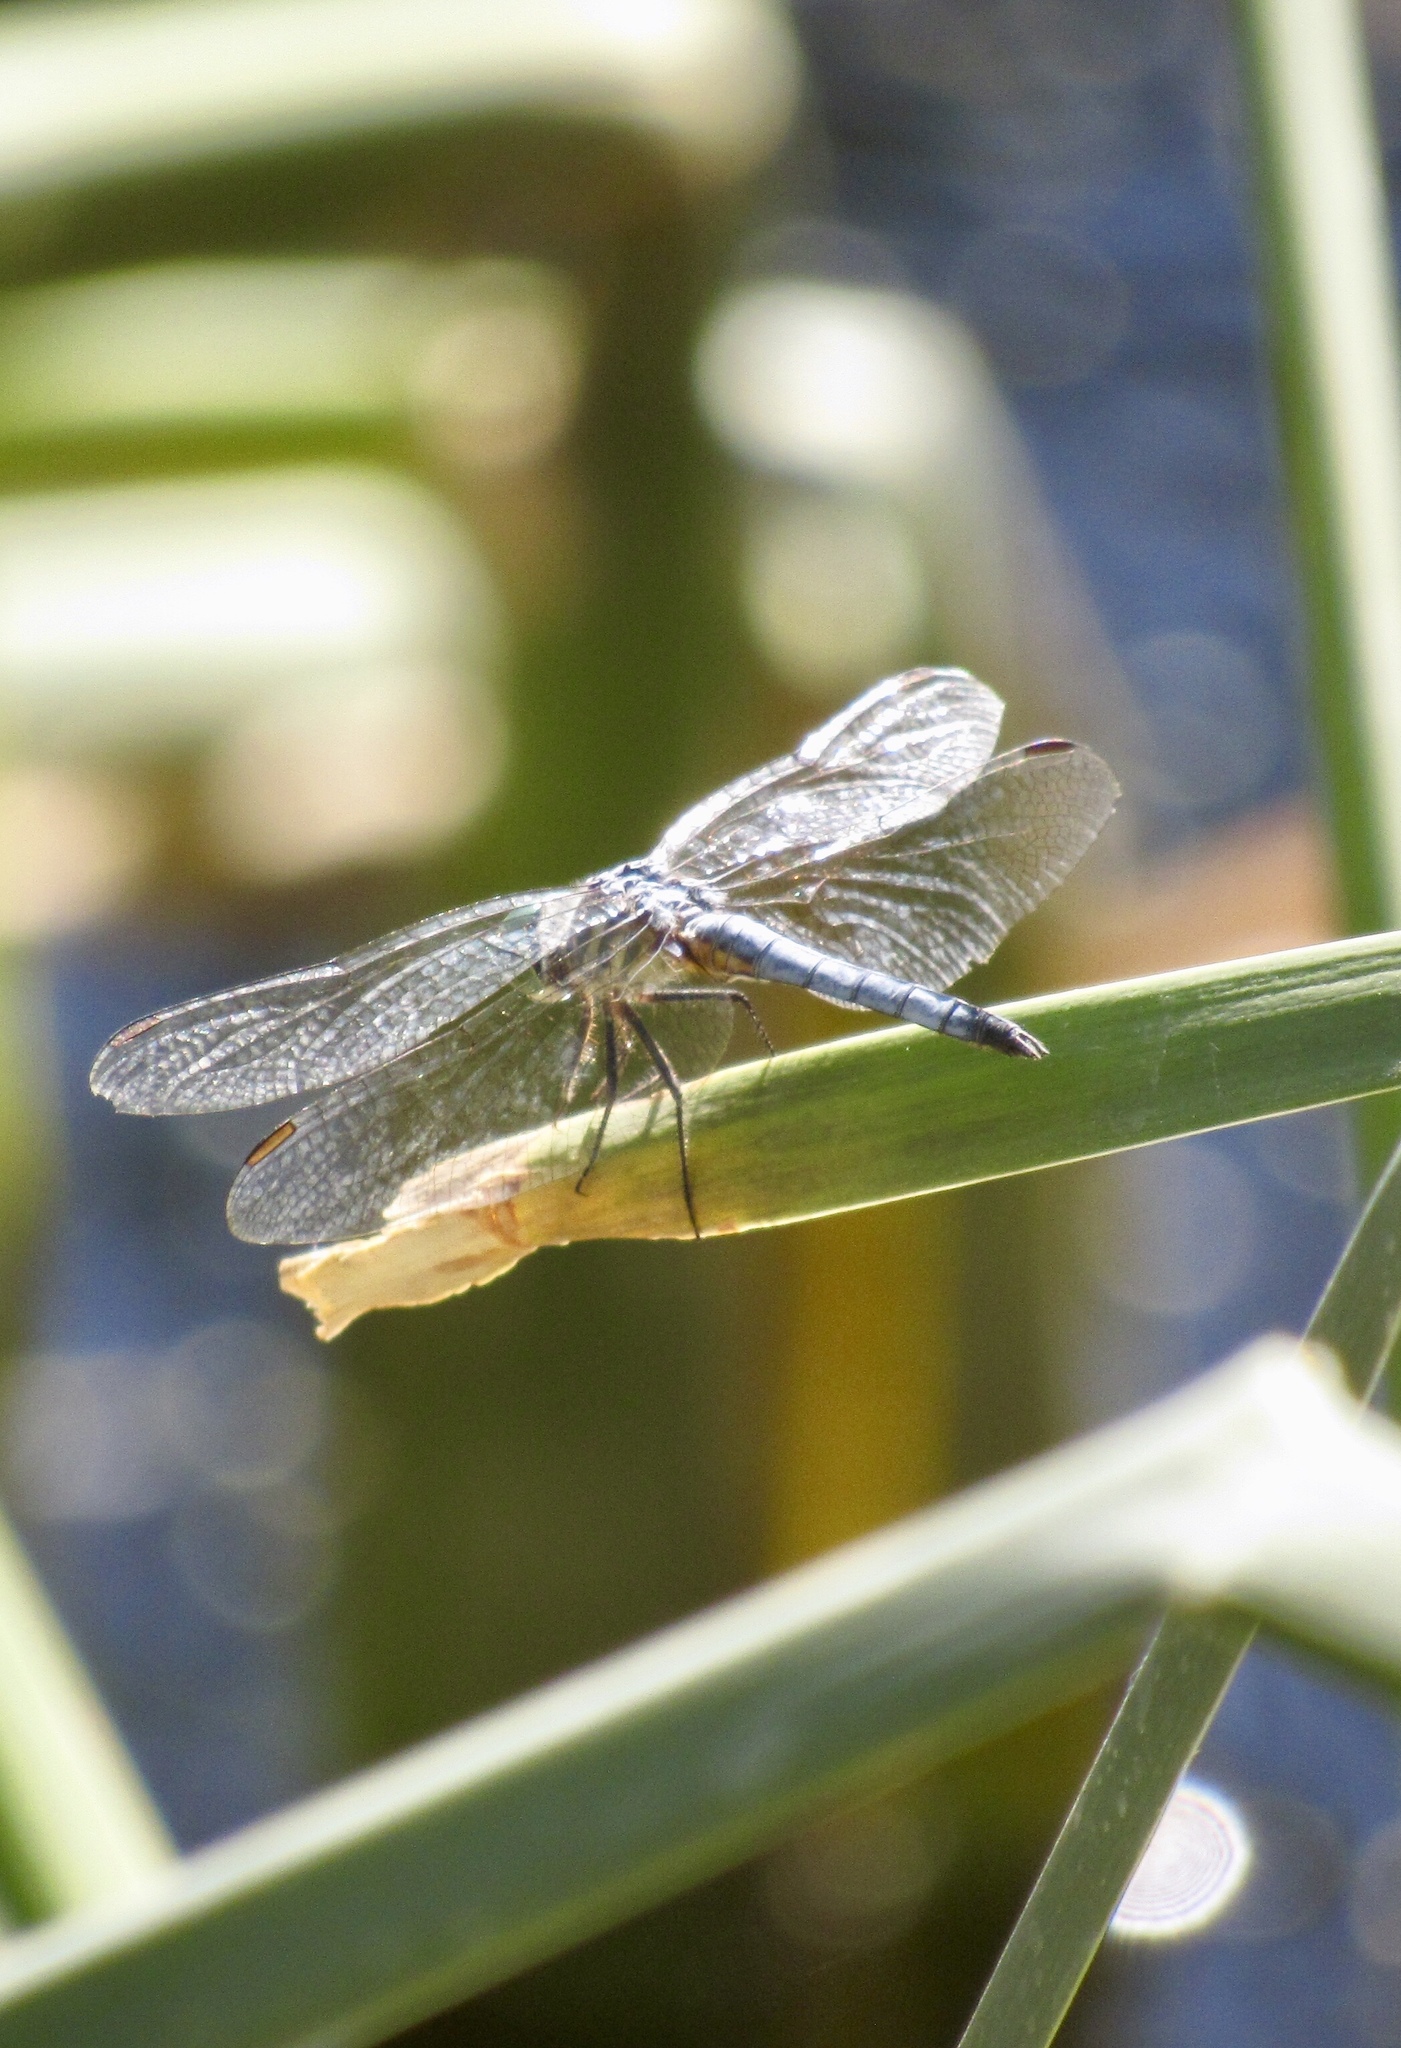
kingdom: Animalia
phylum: Arthropoda
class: Insecta
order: Odonata
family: Libellulidae
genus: Pachydiplax
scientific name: Pachydiplax longipennis
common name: Blue dasher
